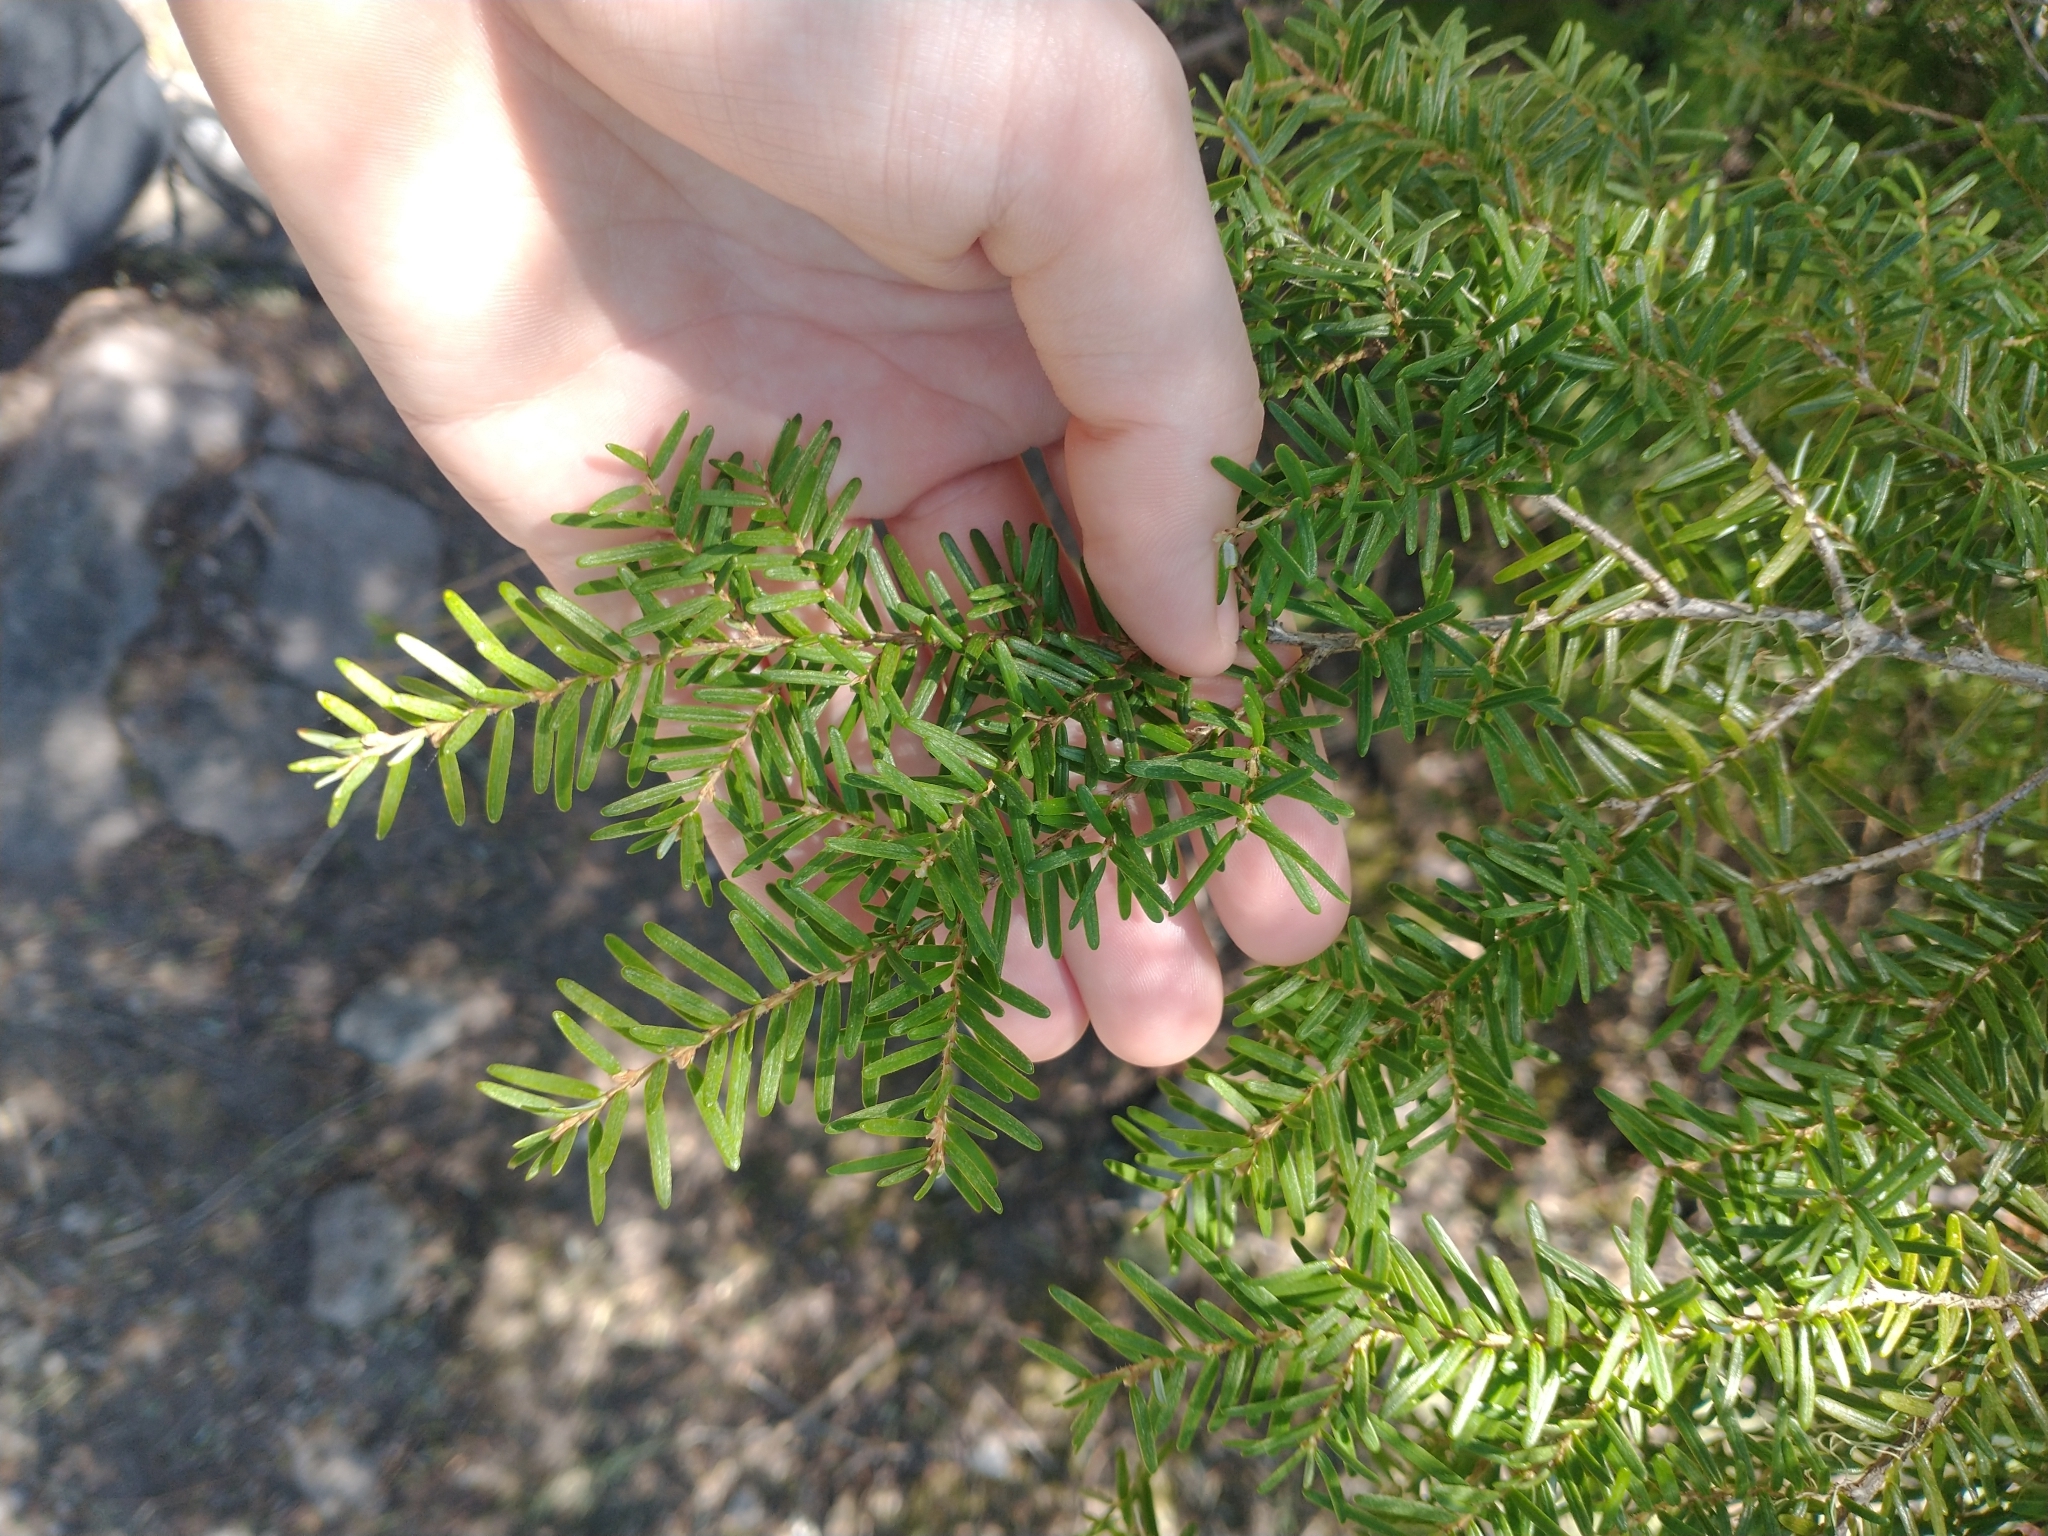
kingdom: Plantae
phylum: Tracheophyta
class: Pinopsida
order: Pinales
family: Pinaceae
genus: Tsuga
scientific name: Tsuga heterophylla
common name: Western hemlock
